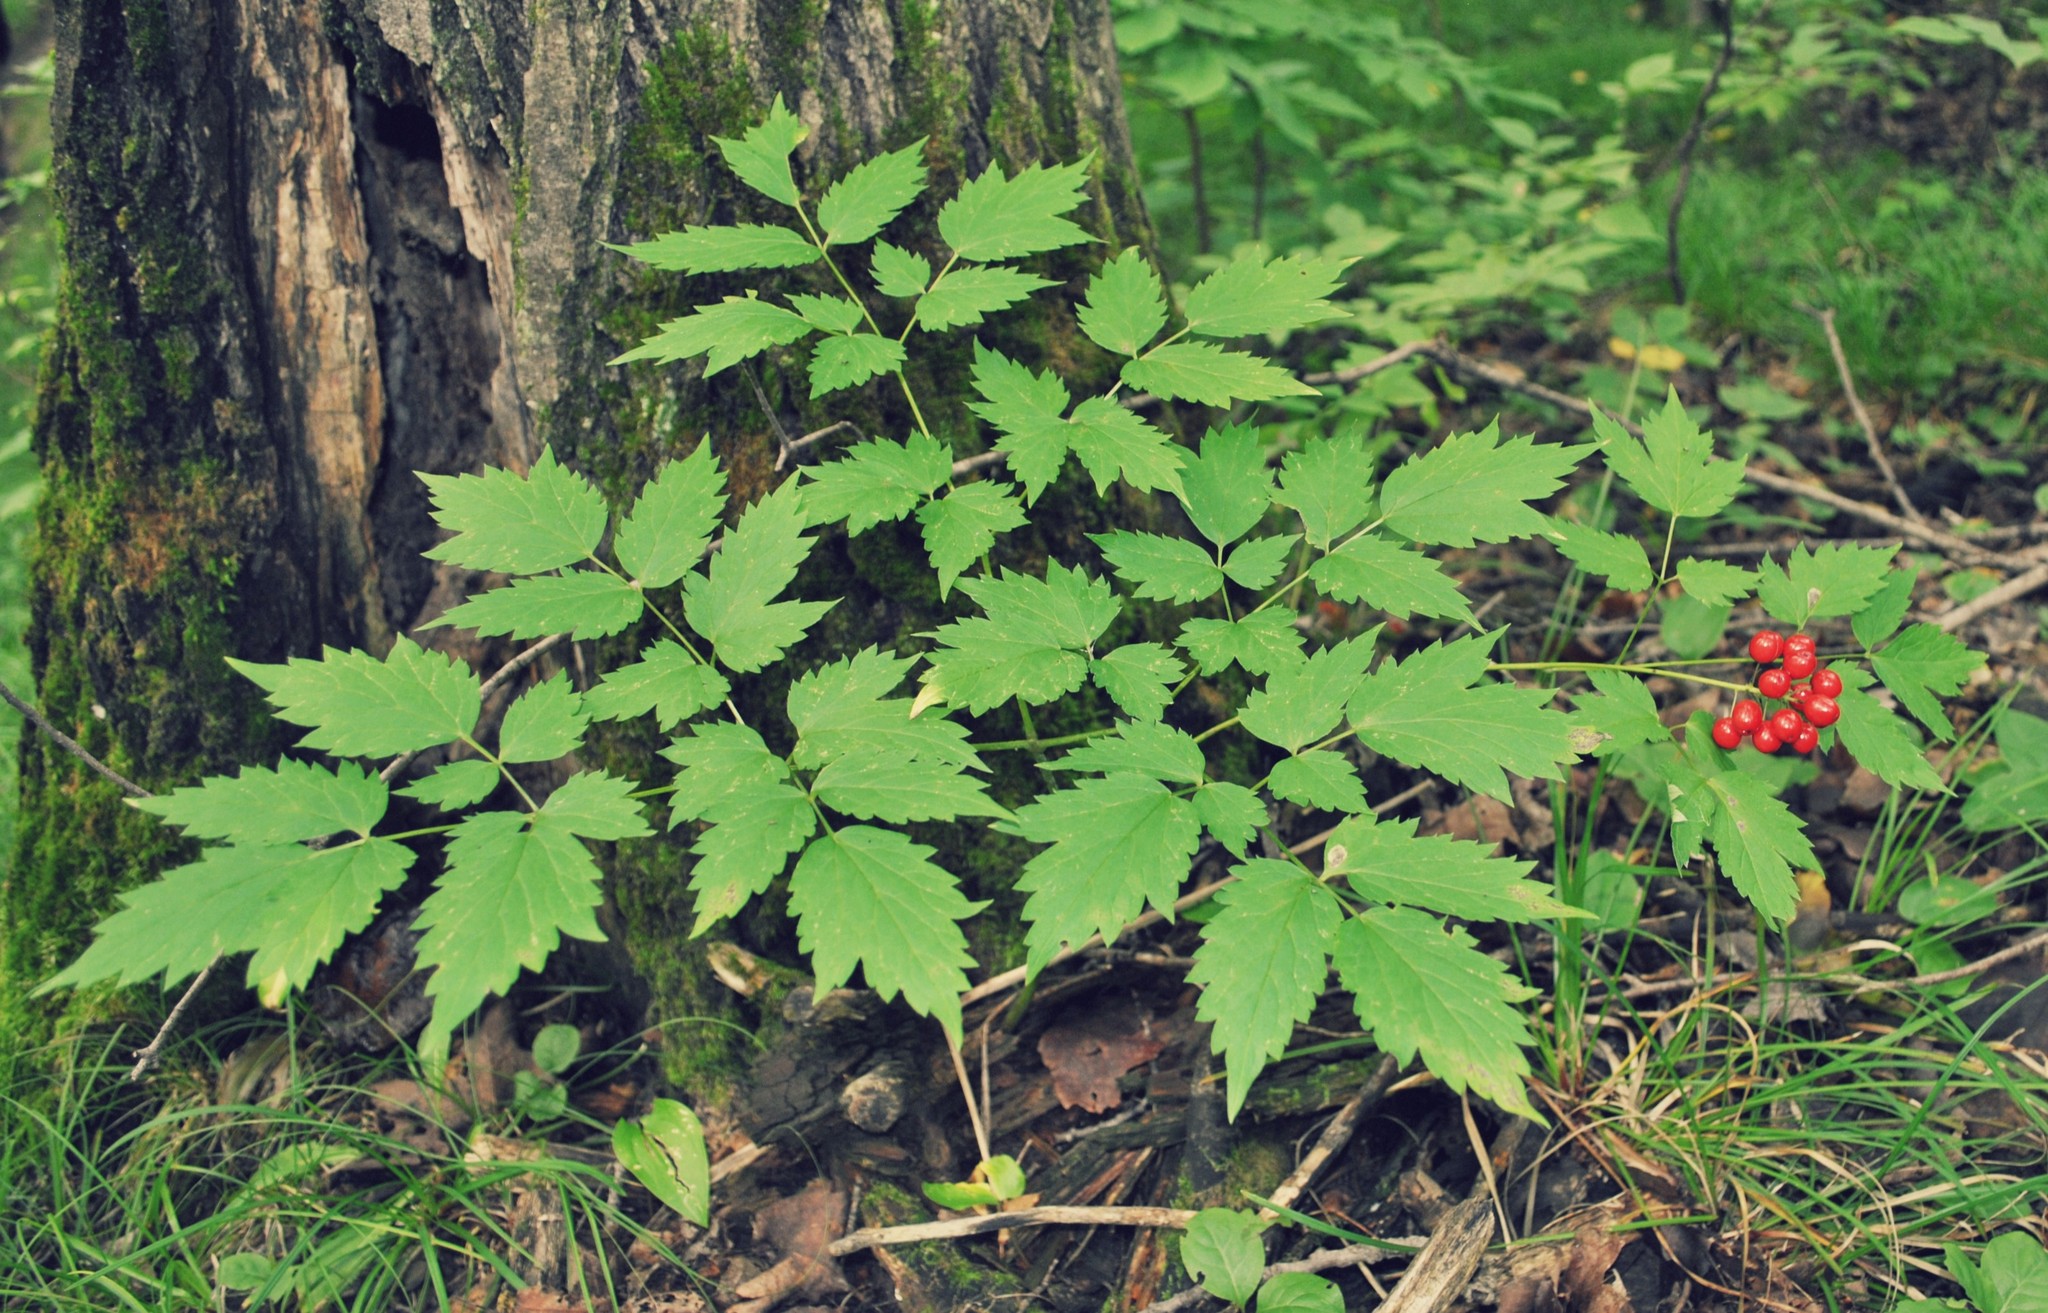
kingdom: Plantae
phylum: Tracheophyta
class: Magnoliopsida
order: Ranunculales
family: Ranunculaceae
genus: Actaea
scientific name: Actaea rubra
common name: Red baneberry
